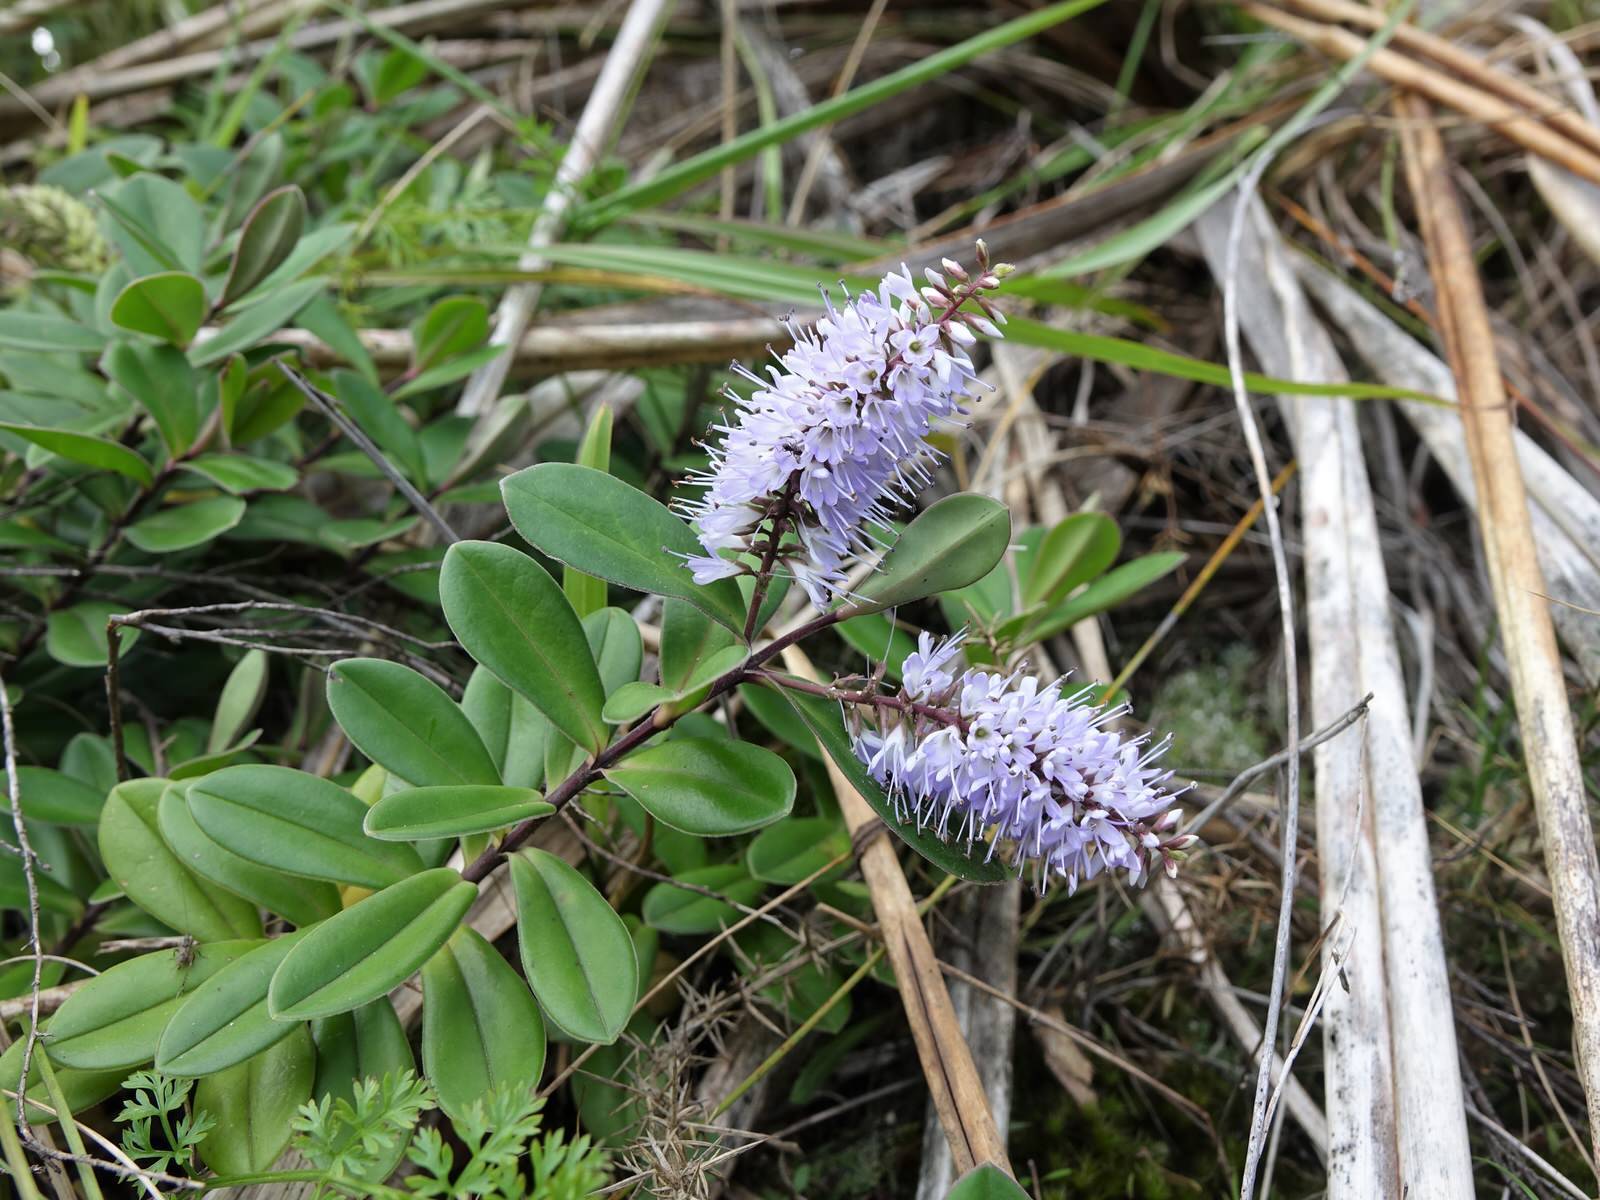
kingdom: Plantae
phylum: Tracheophyta
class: Magnoliopsida
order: Lamiales
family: Plantaginaceae
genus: Veronica
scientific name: Veronica obtusata
